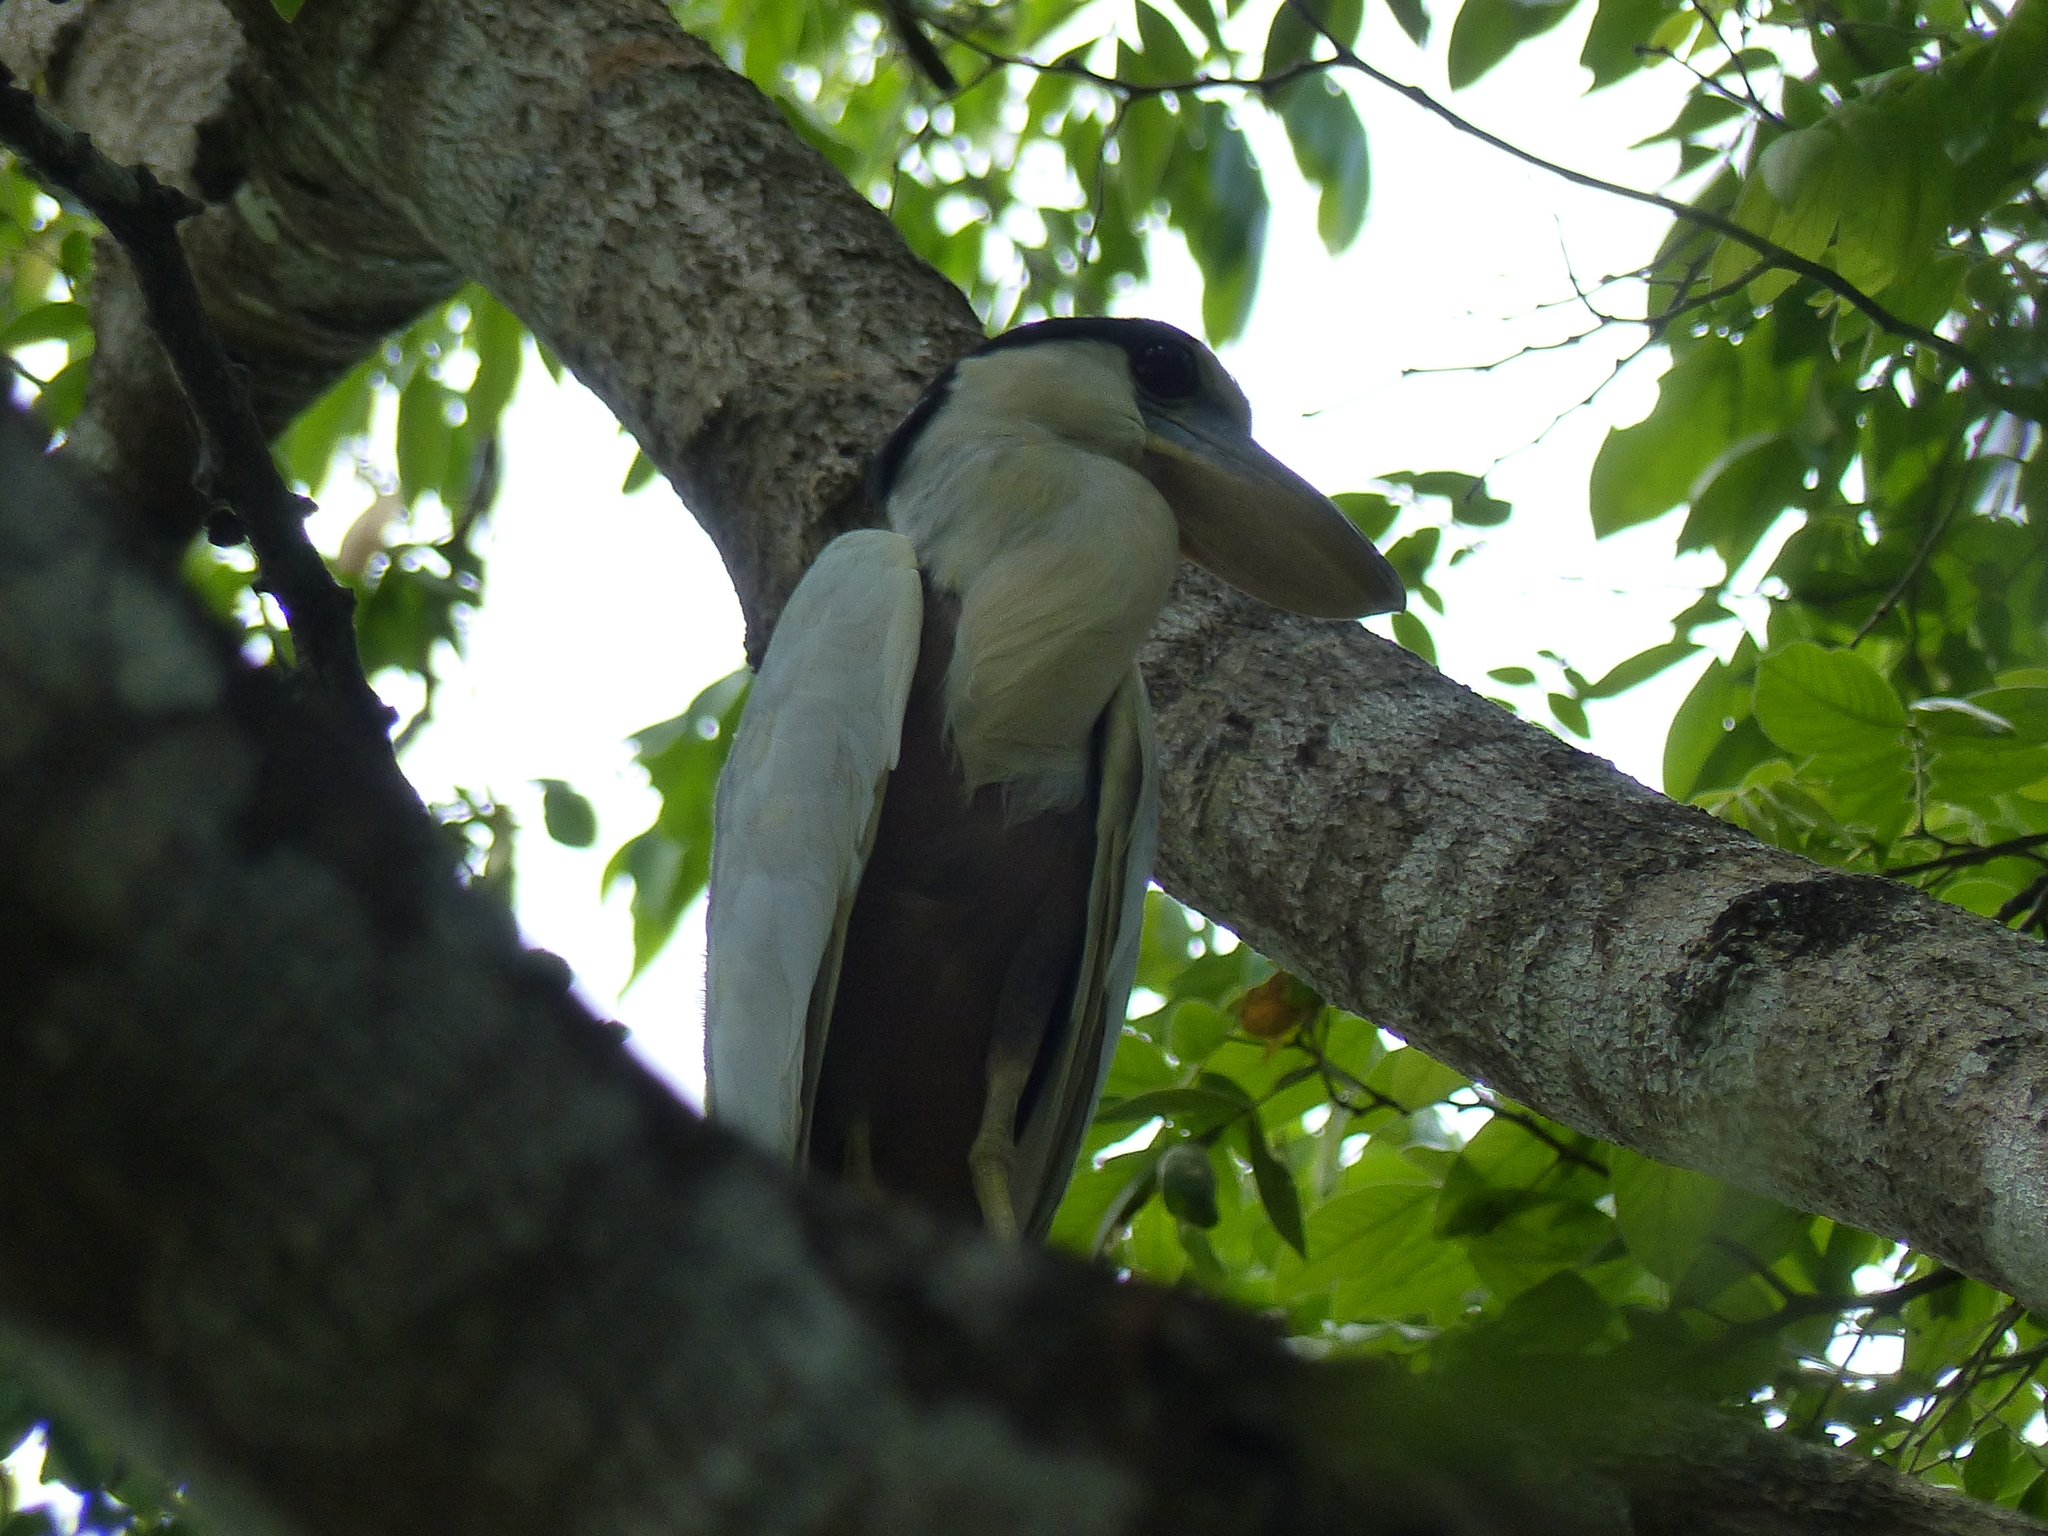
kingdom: Animalia
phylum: Chordata
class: Aves
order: Pelecaniformes
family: Ardeidae
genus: Cochlearius
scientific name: Cochlearius cochlearius
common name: Boat-billed heron
